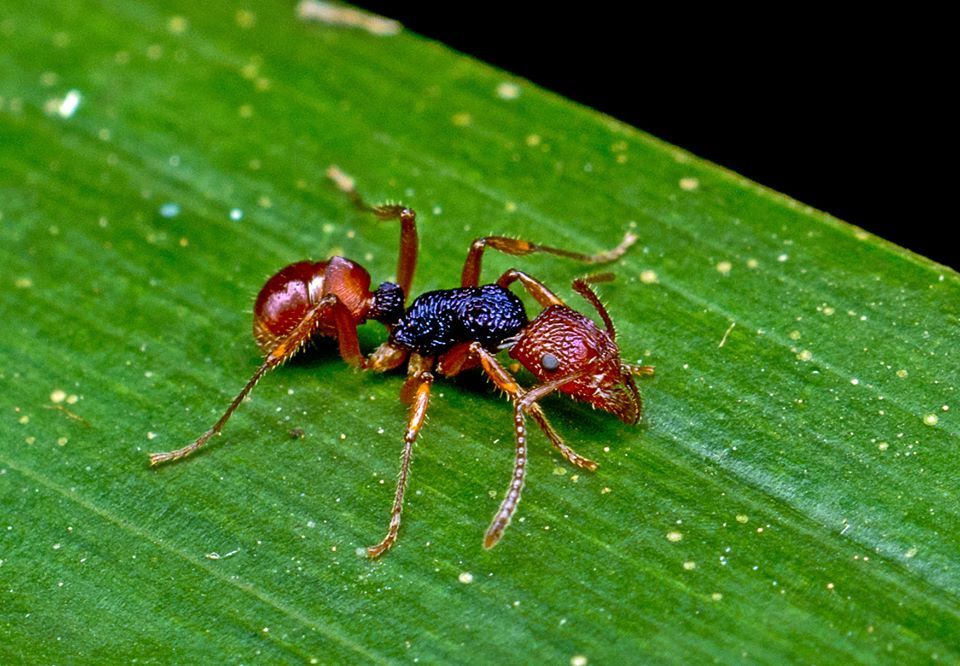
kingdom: Animalia
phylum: Arthropoda
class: Insecta
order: Hymenoptera
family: Formicidae
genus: Rhytidoponera
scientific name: Rhytidoponera croesus
